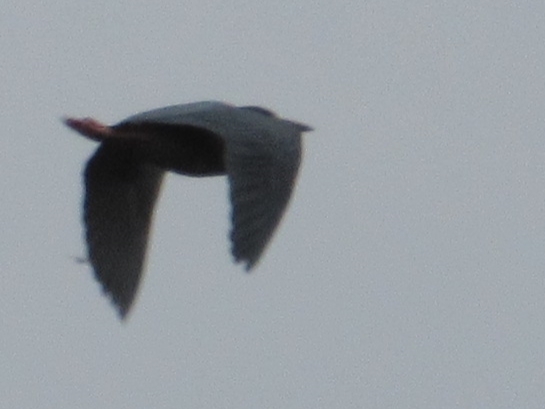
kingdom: Animalia
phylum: Chordata
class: Aves
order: Pelecaniformes
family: Ardeidae
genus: Butorides
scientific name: Butorides virescens
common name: Green heron
